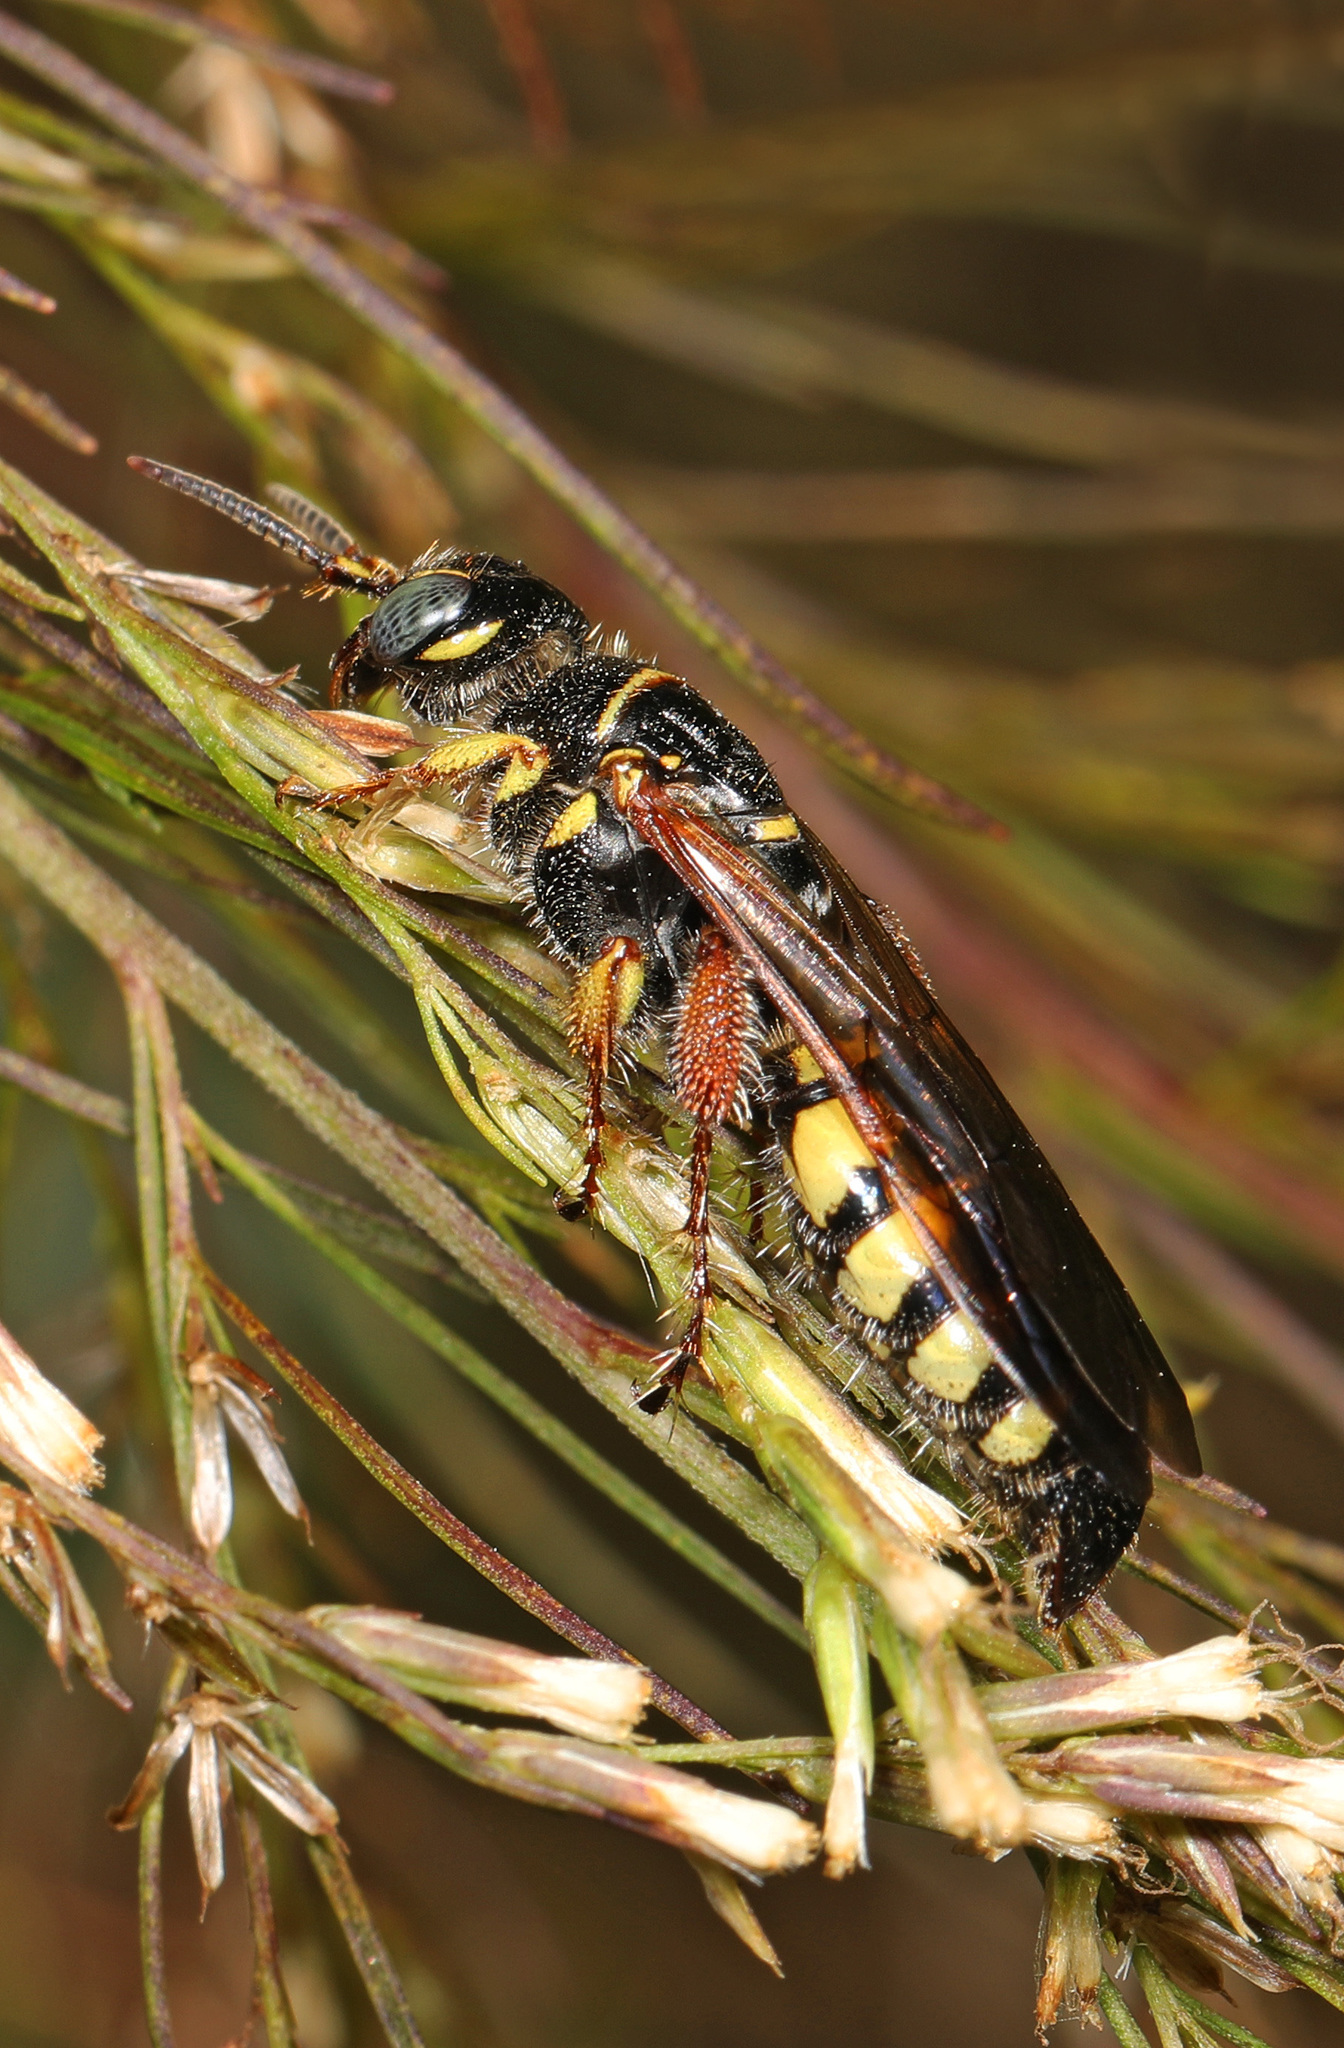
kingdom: Animalia
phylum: Arthropoda
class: Insecta
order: Hymenoptera
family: Tiphiidae
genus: Myzinum
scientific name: Myzinum carolinianum
